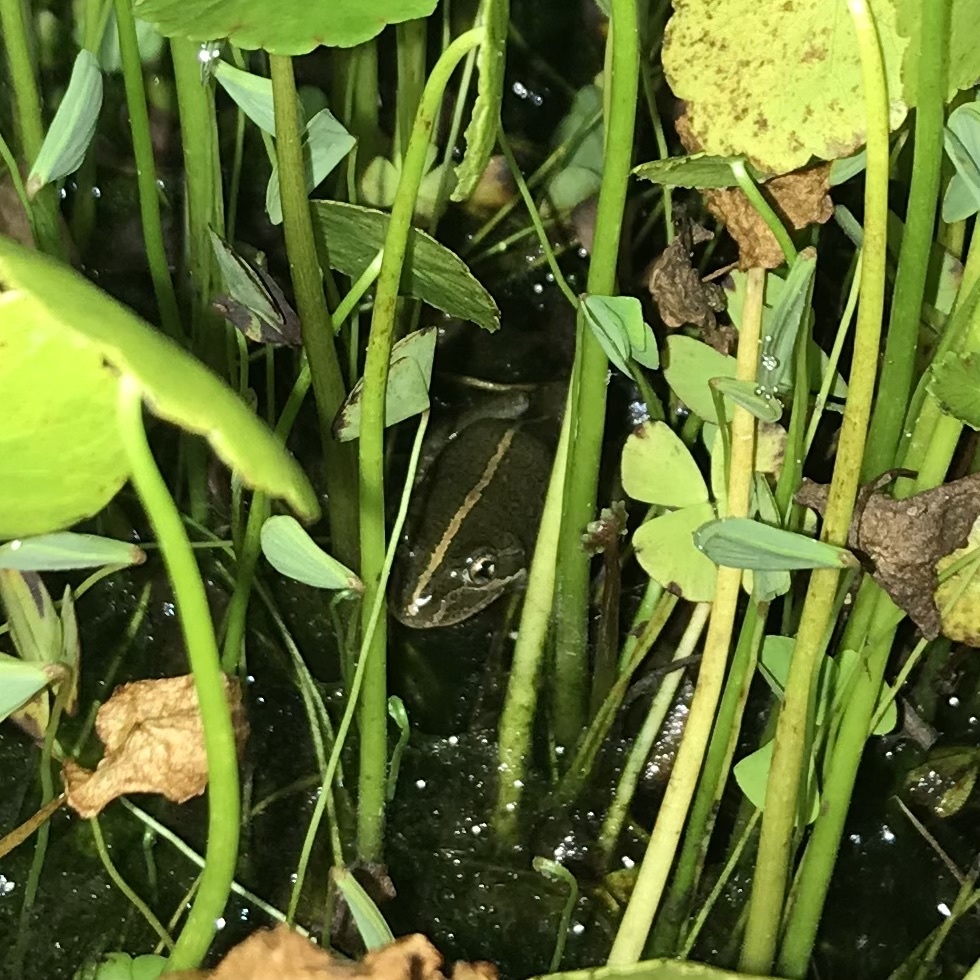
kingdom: Animalia
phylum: Chordata
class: Amphibia
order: Anura
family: Limnodynastidae
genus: Limnodynastes
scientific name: Limnodynastes tasmaniensis
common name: Spotted marsh frog
